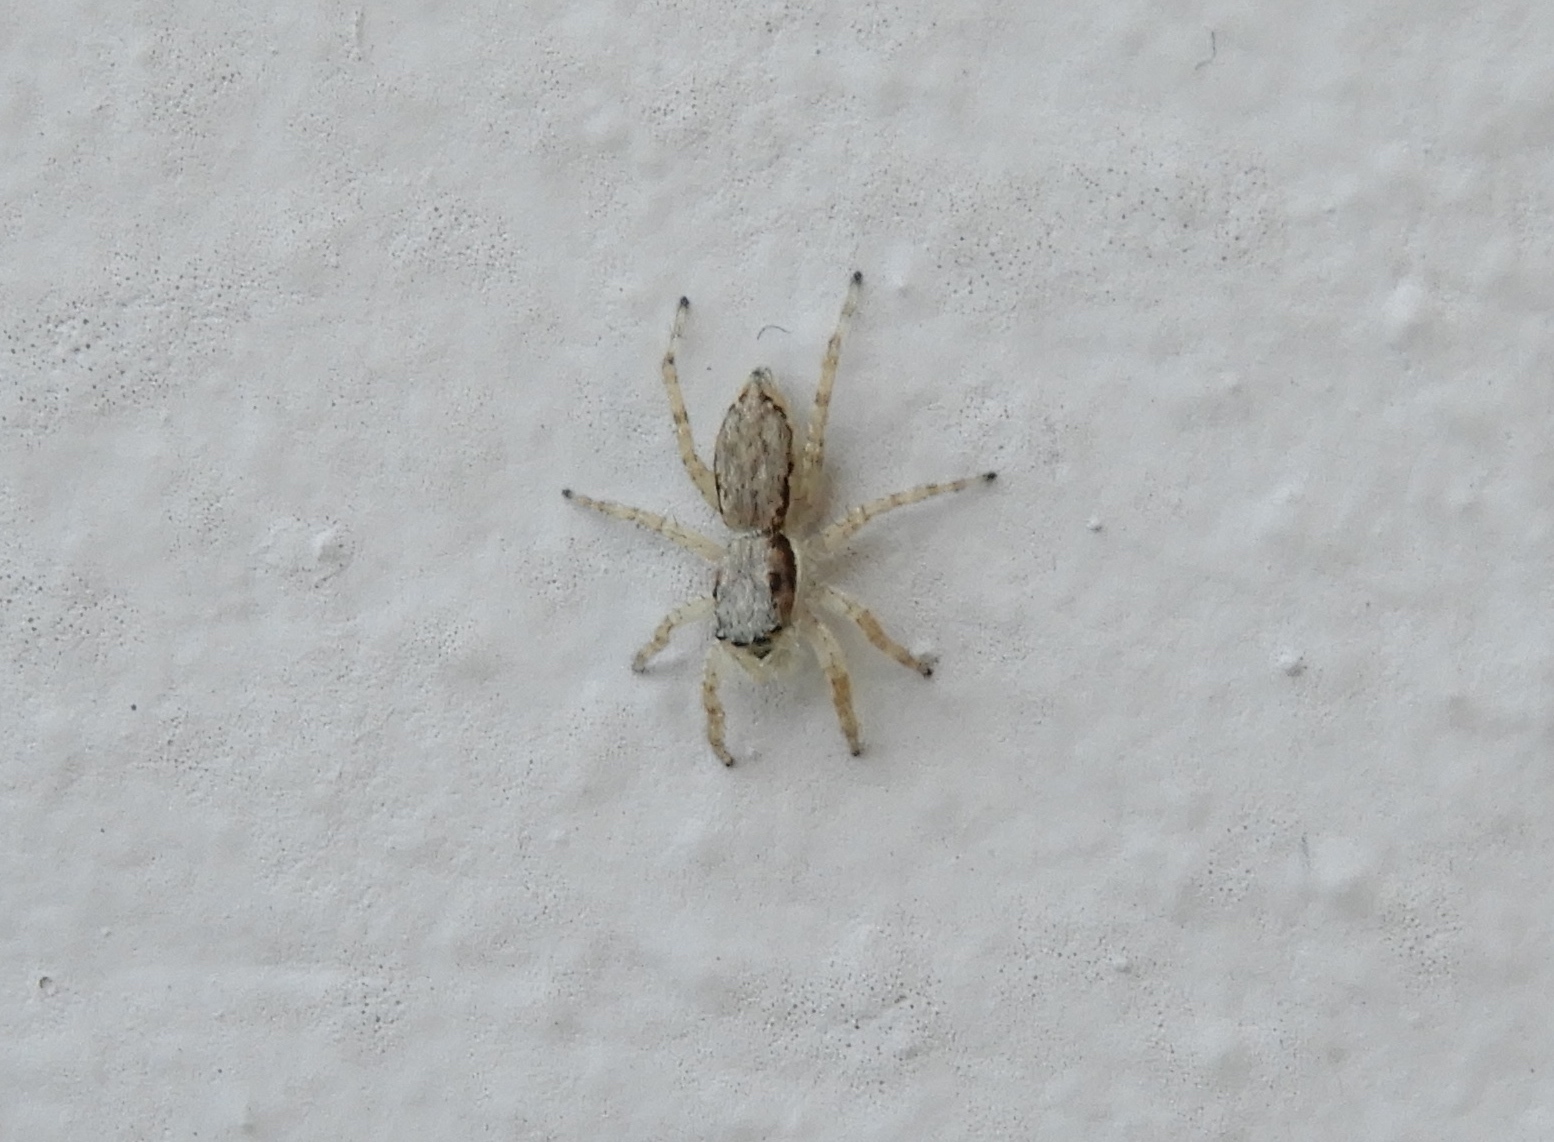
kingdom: Animalia
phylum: Arthropoda
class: Arachnida
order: Araneae
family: Salticidae
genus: Menemerus
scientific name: Menemerus bivittatus
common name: Gray wall jumper
